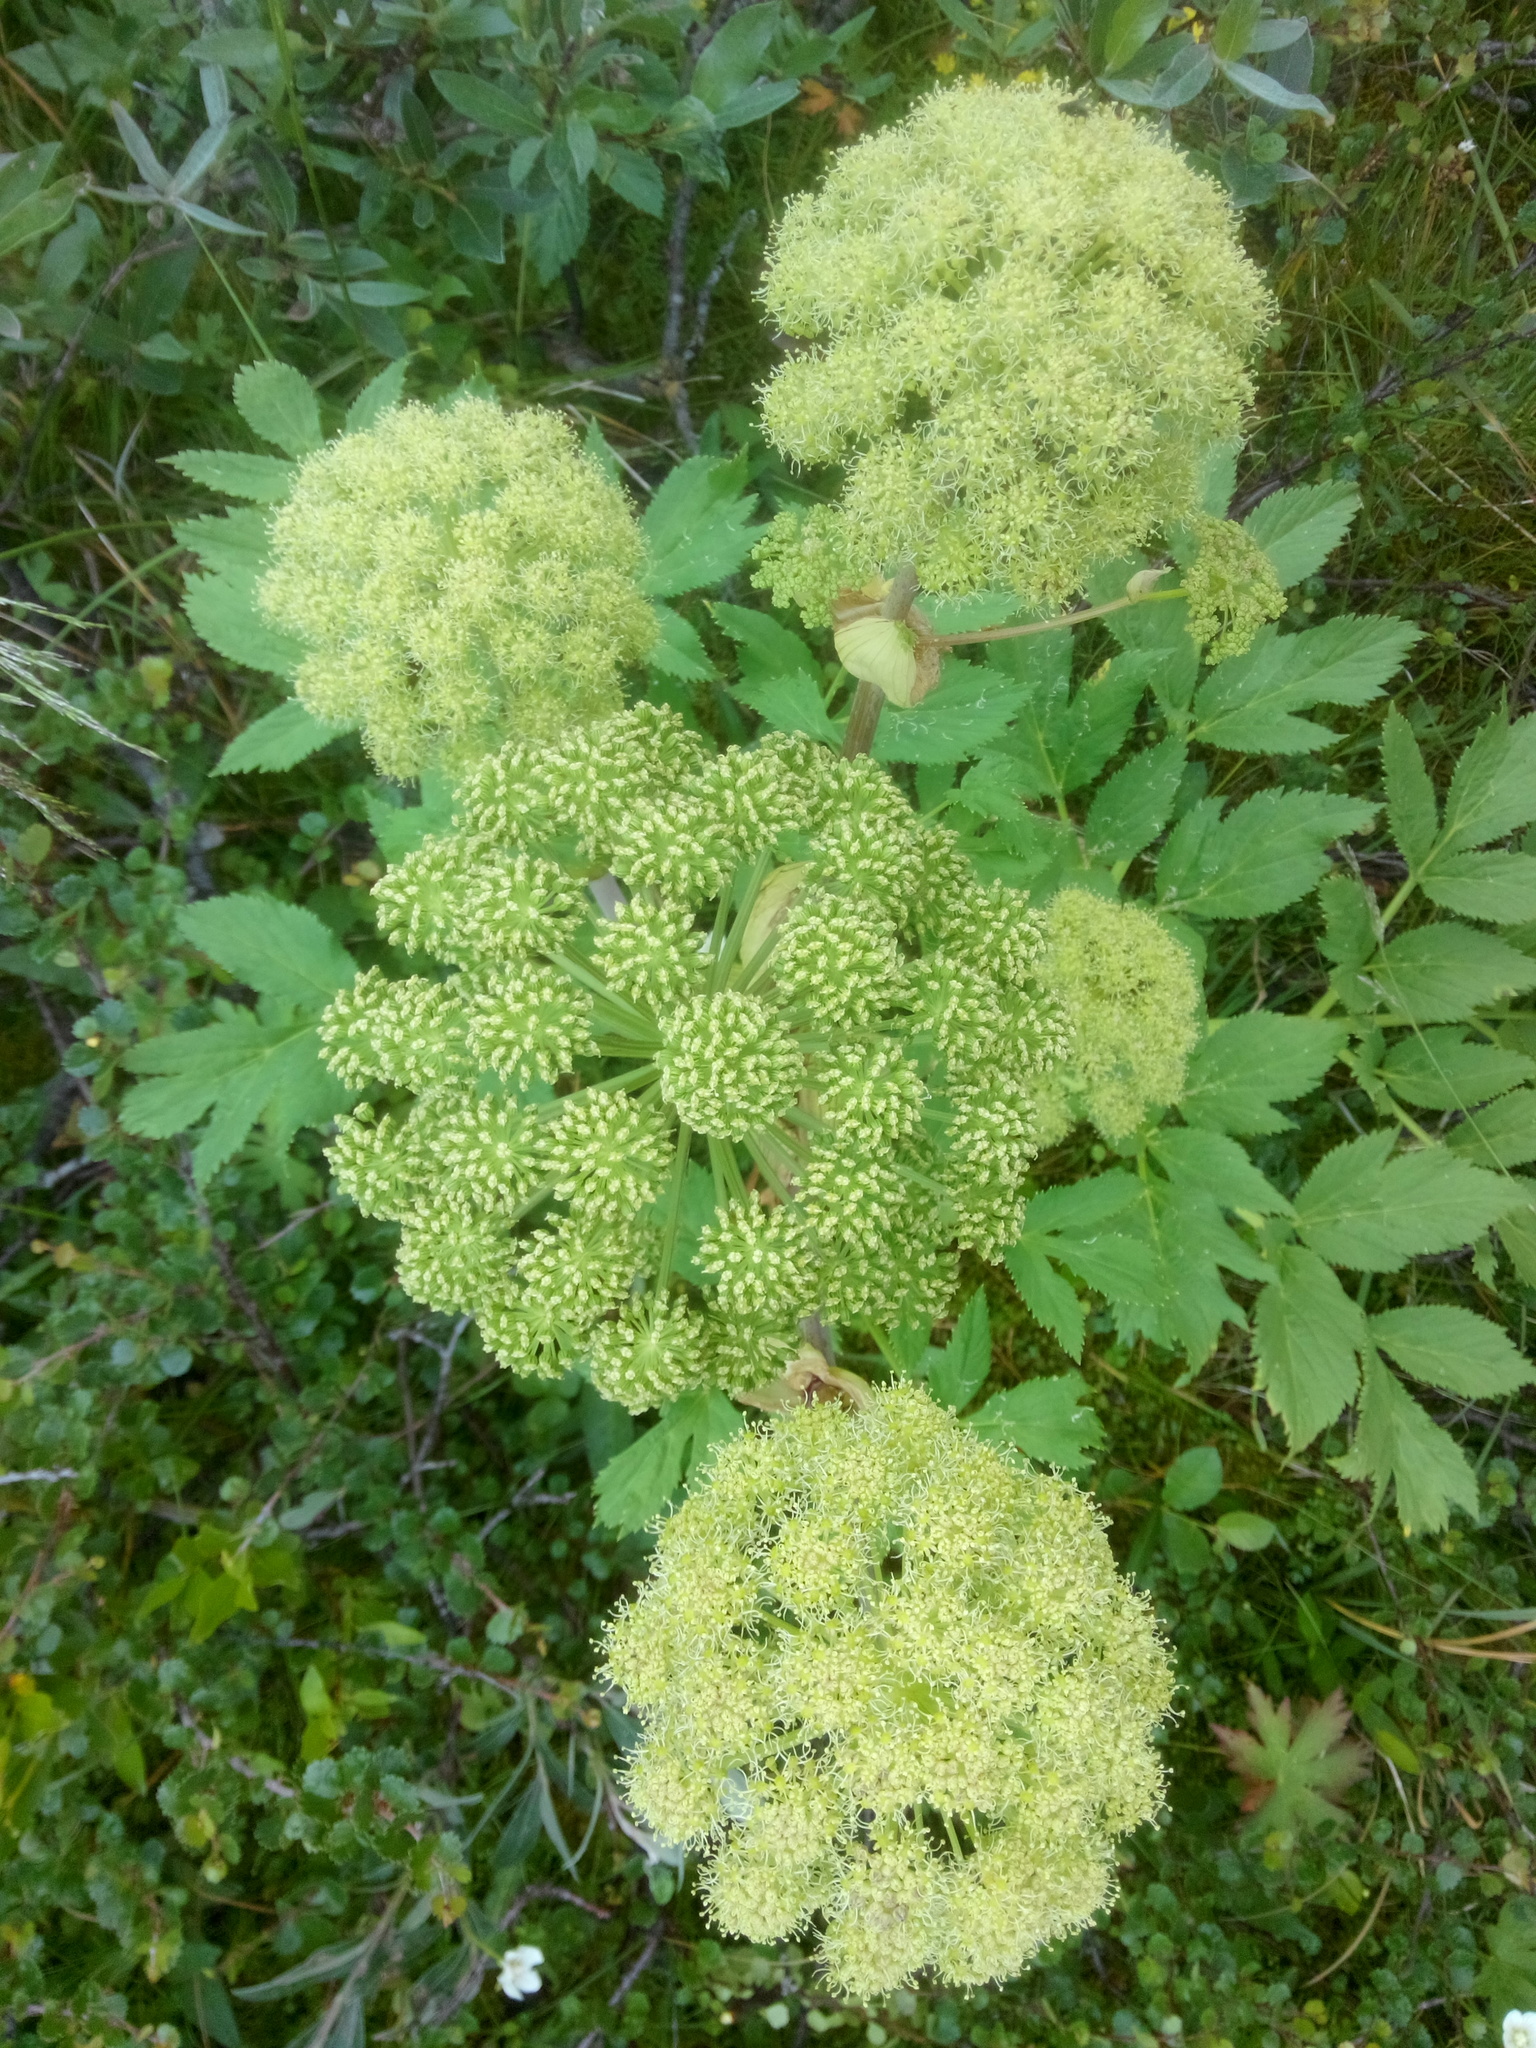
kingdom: Plantae
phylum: Tracheophyta
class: Magnoliopsida
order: Apiales
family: Apiaceae
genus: Angelica
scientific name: Angelica archangelica
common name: Garden angelica
